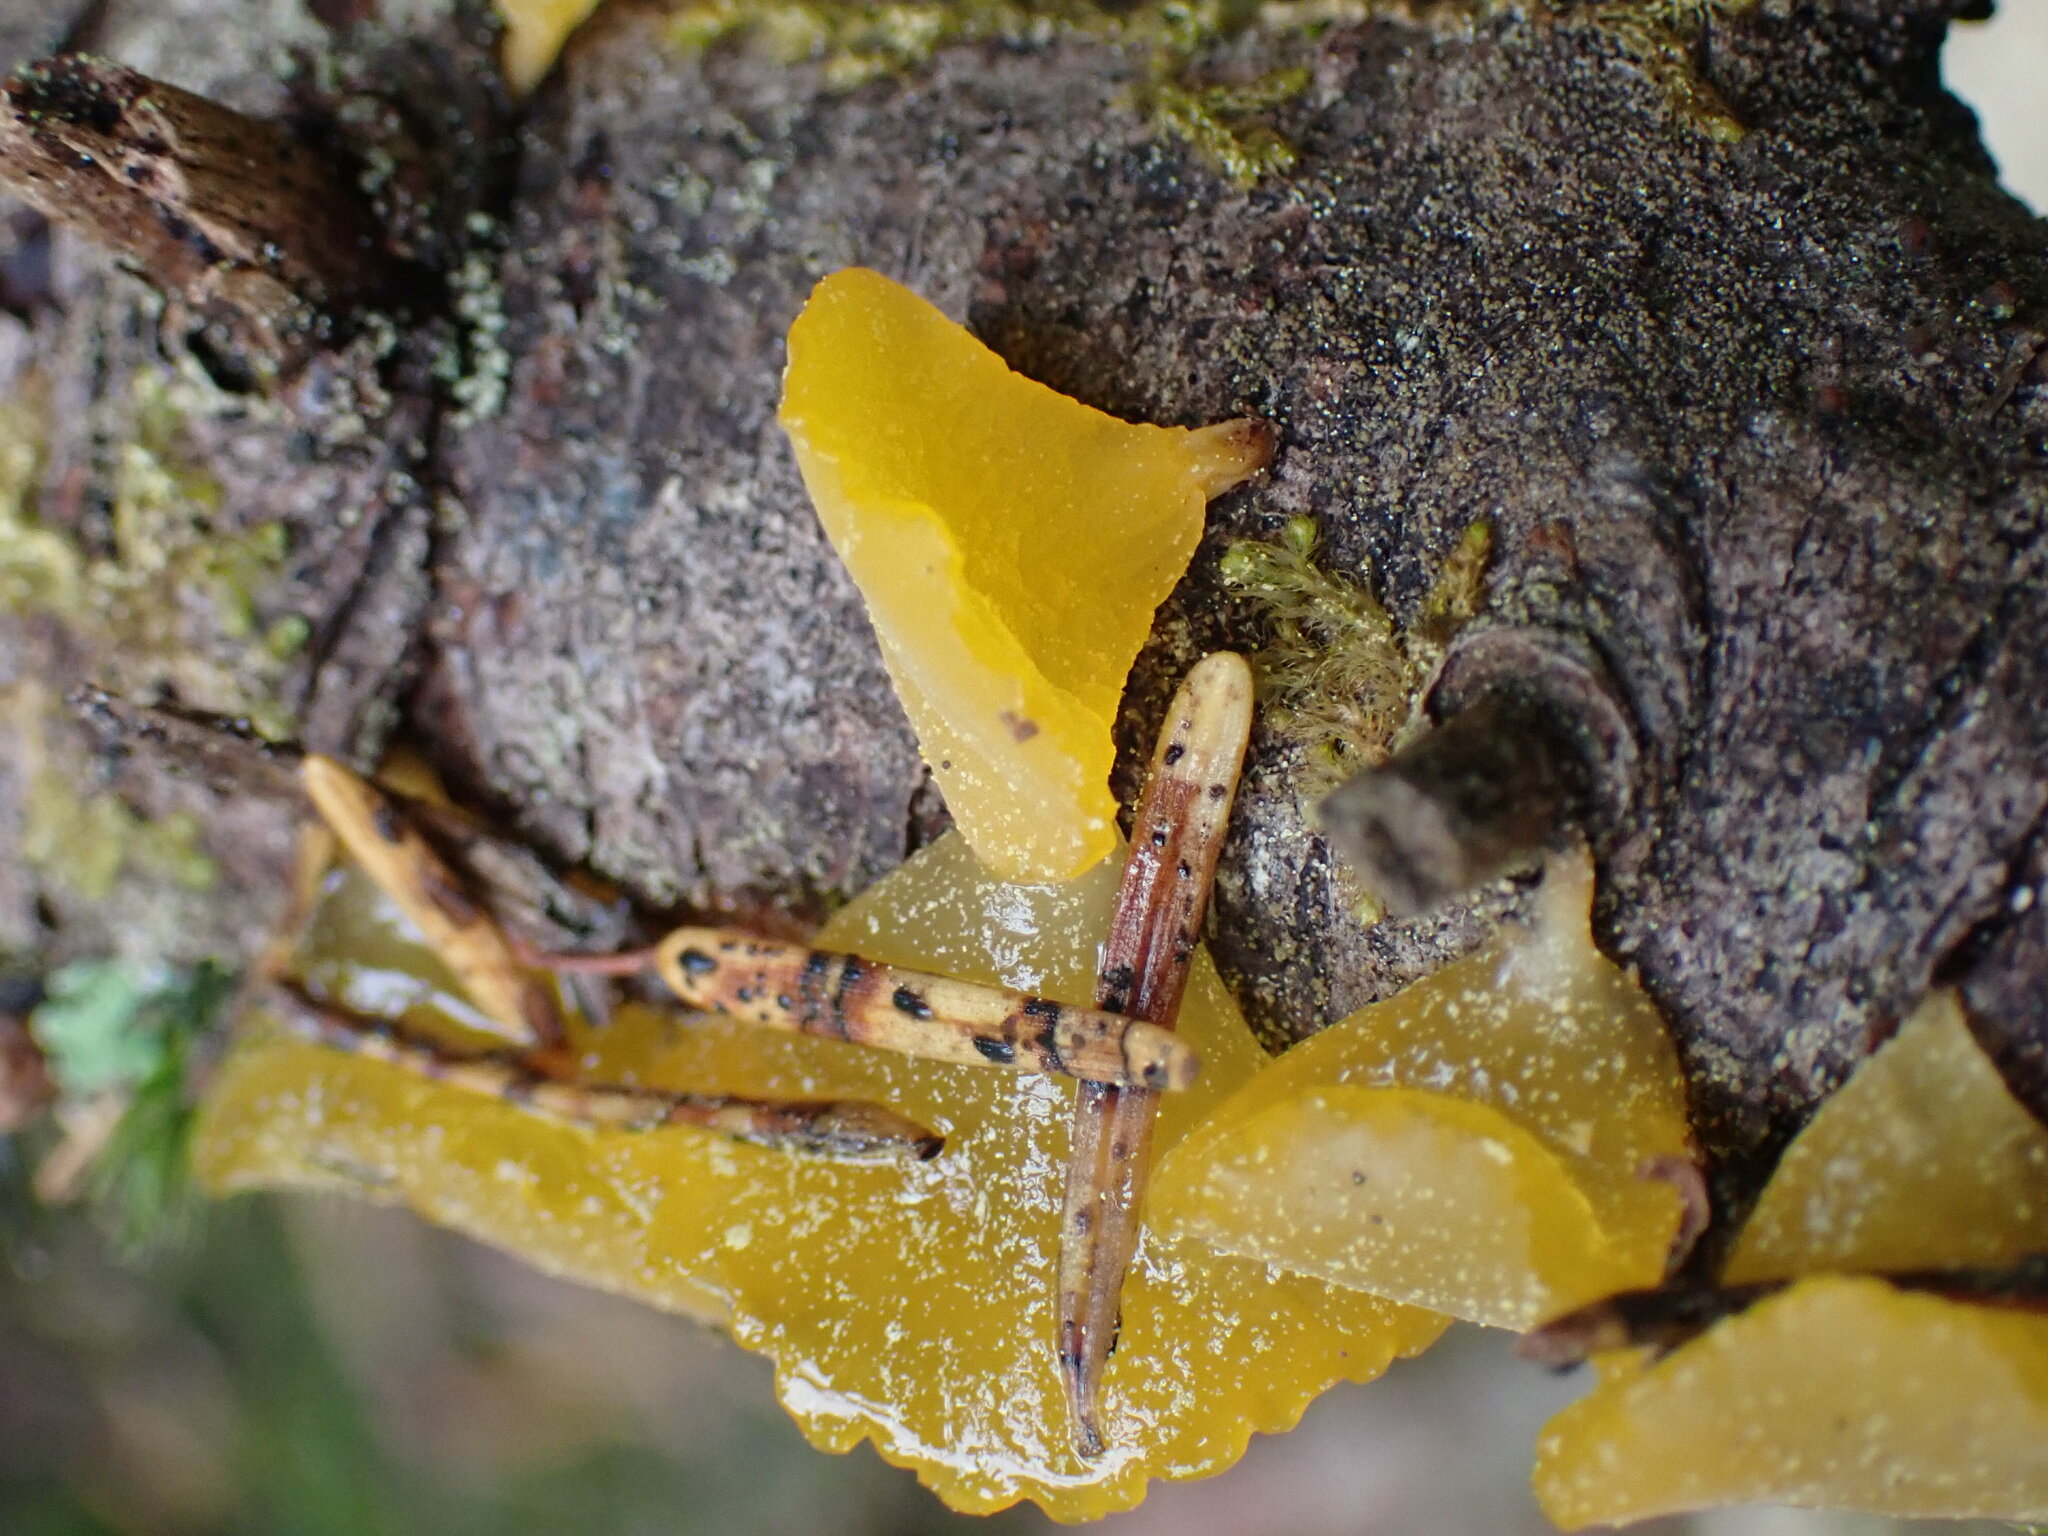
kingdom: Fungi
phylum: Basidiomycota
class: Dacrymycetes
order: Dacrymycetales
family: Dacrymycetaceae
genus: Guepiniopsis
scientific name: Guepiniopsis alpina
